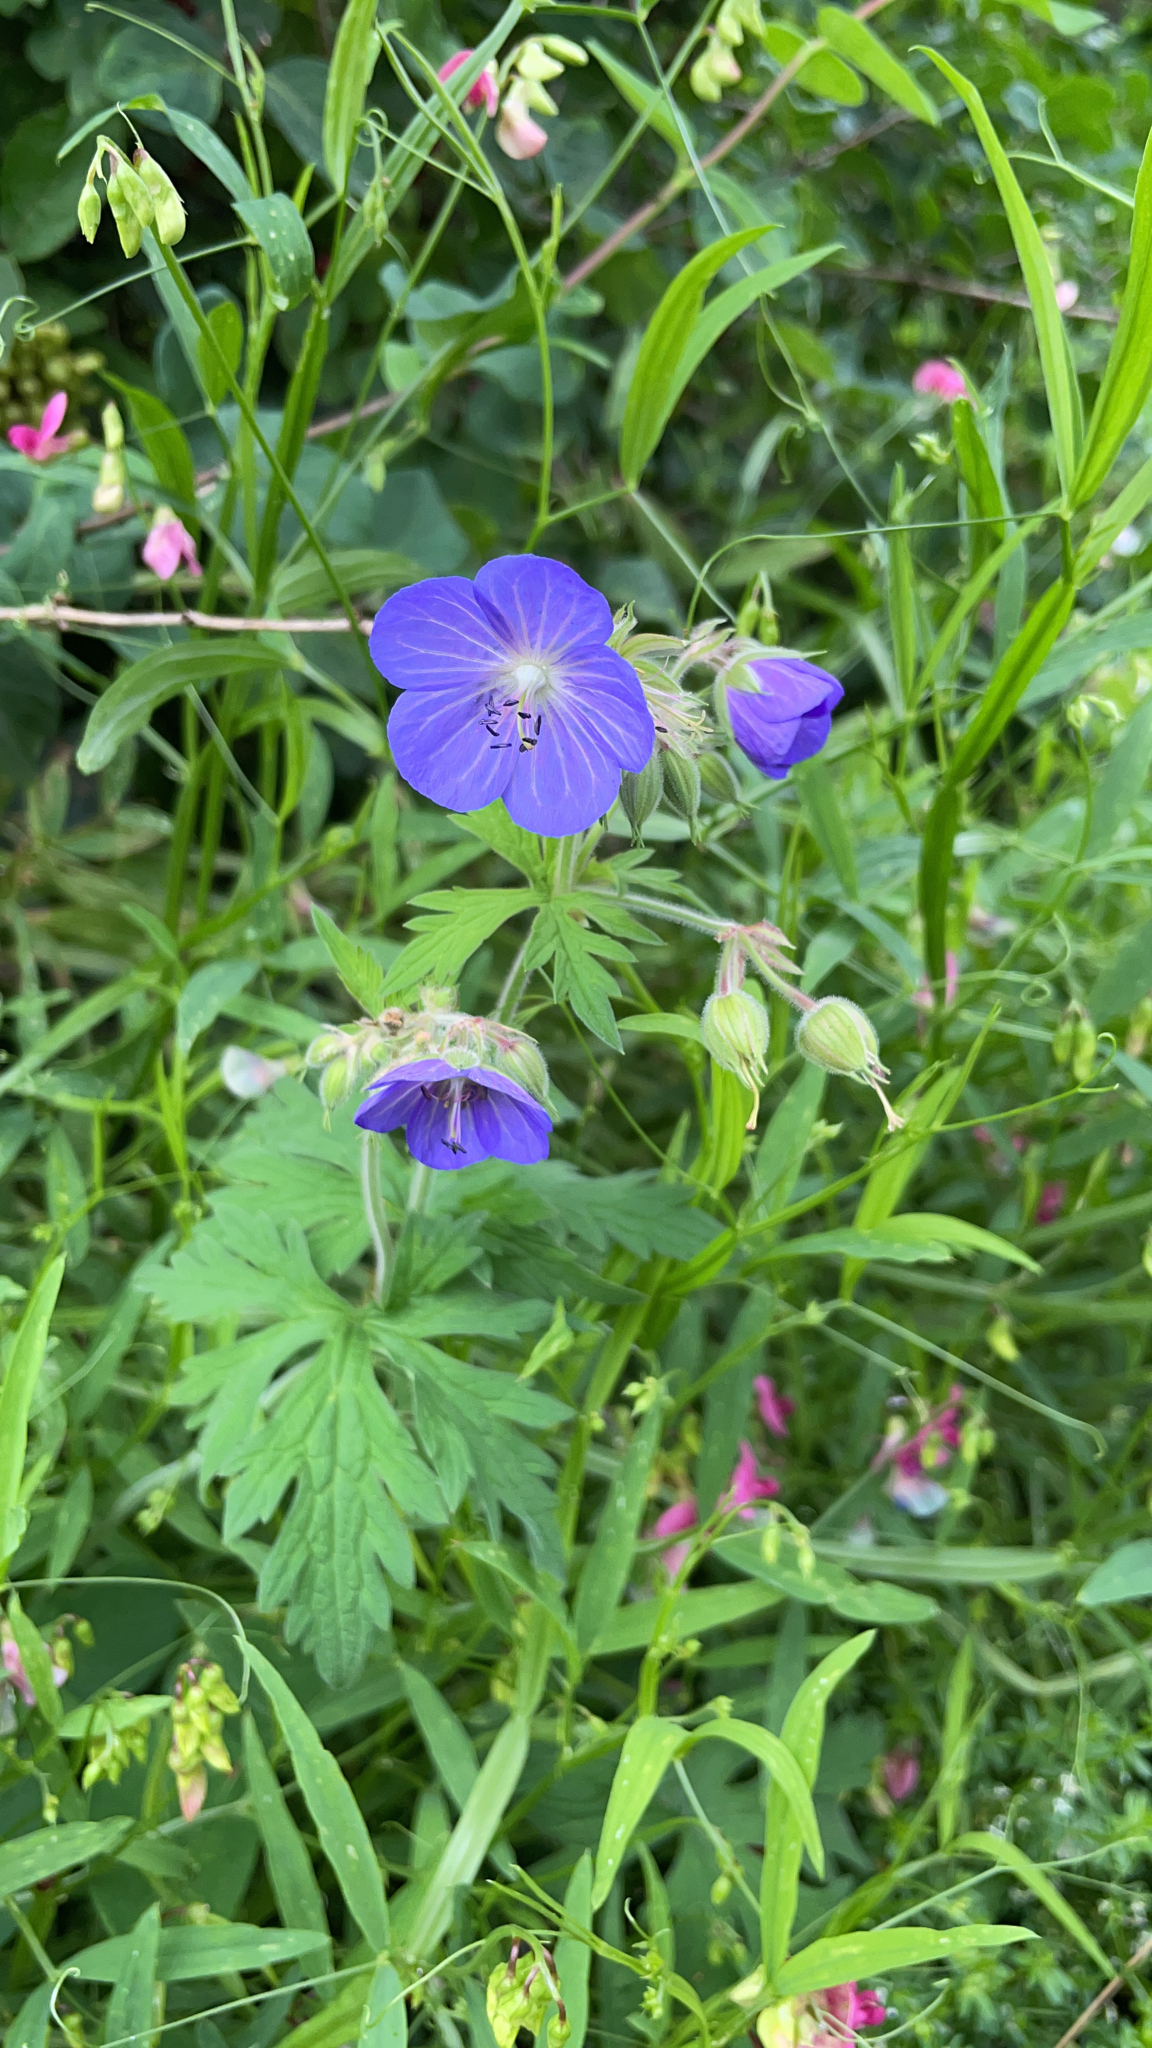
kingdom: Plantae
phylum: Tracheophyta
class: Magnoliopsida
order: Geraniales
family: Geraniaceae
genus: Geranium
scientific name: Geranium pratense
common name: Meadow crane's-bill
